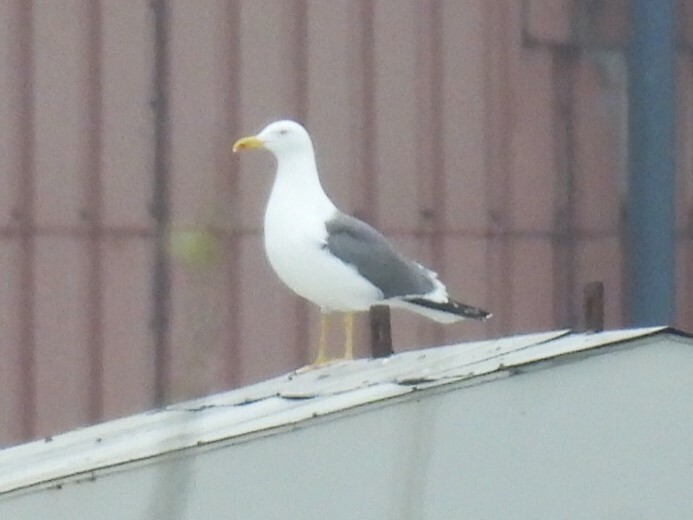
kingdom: Animalia
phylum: Chordata
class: Aves
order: Charadriiformes
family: Laridae
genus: Larus
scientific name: Larus michahellis
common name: Yellow-legged gull
